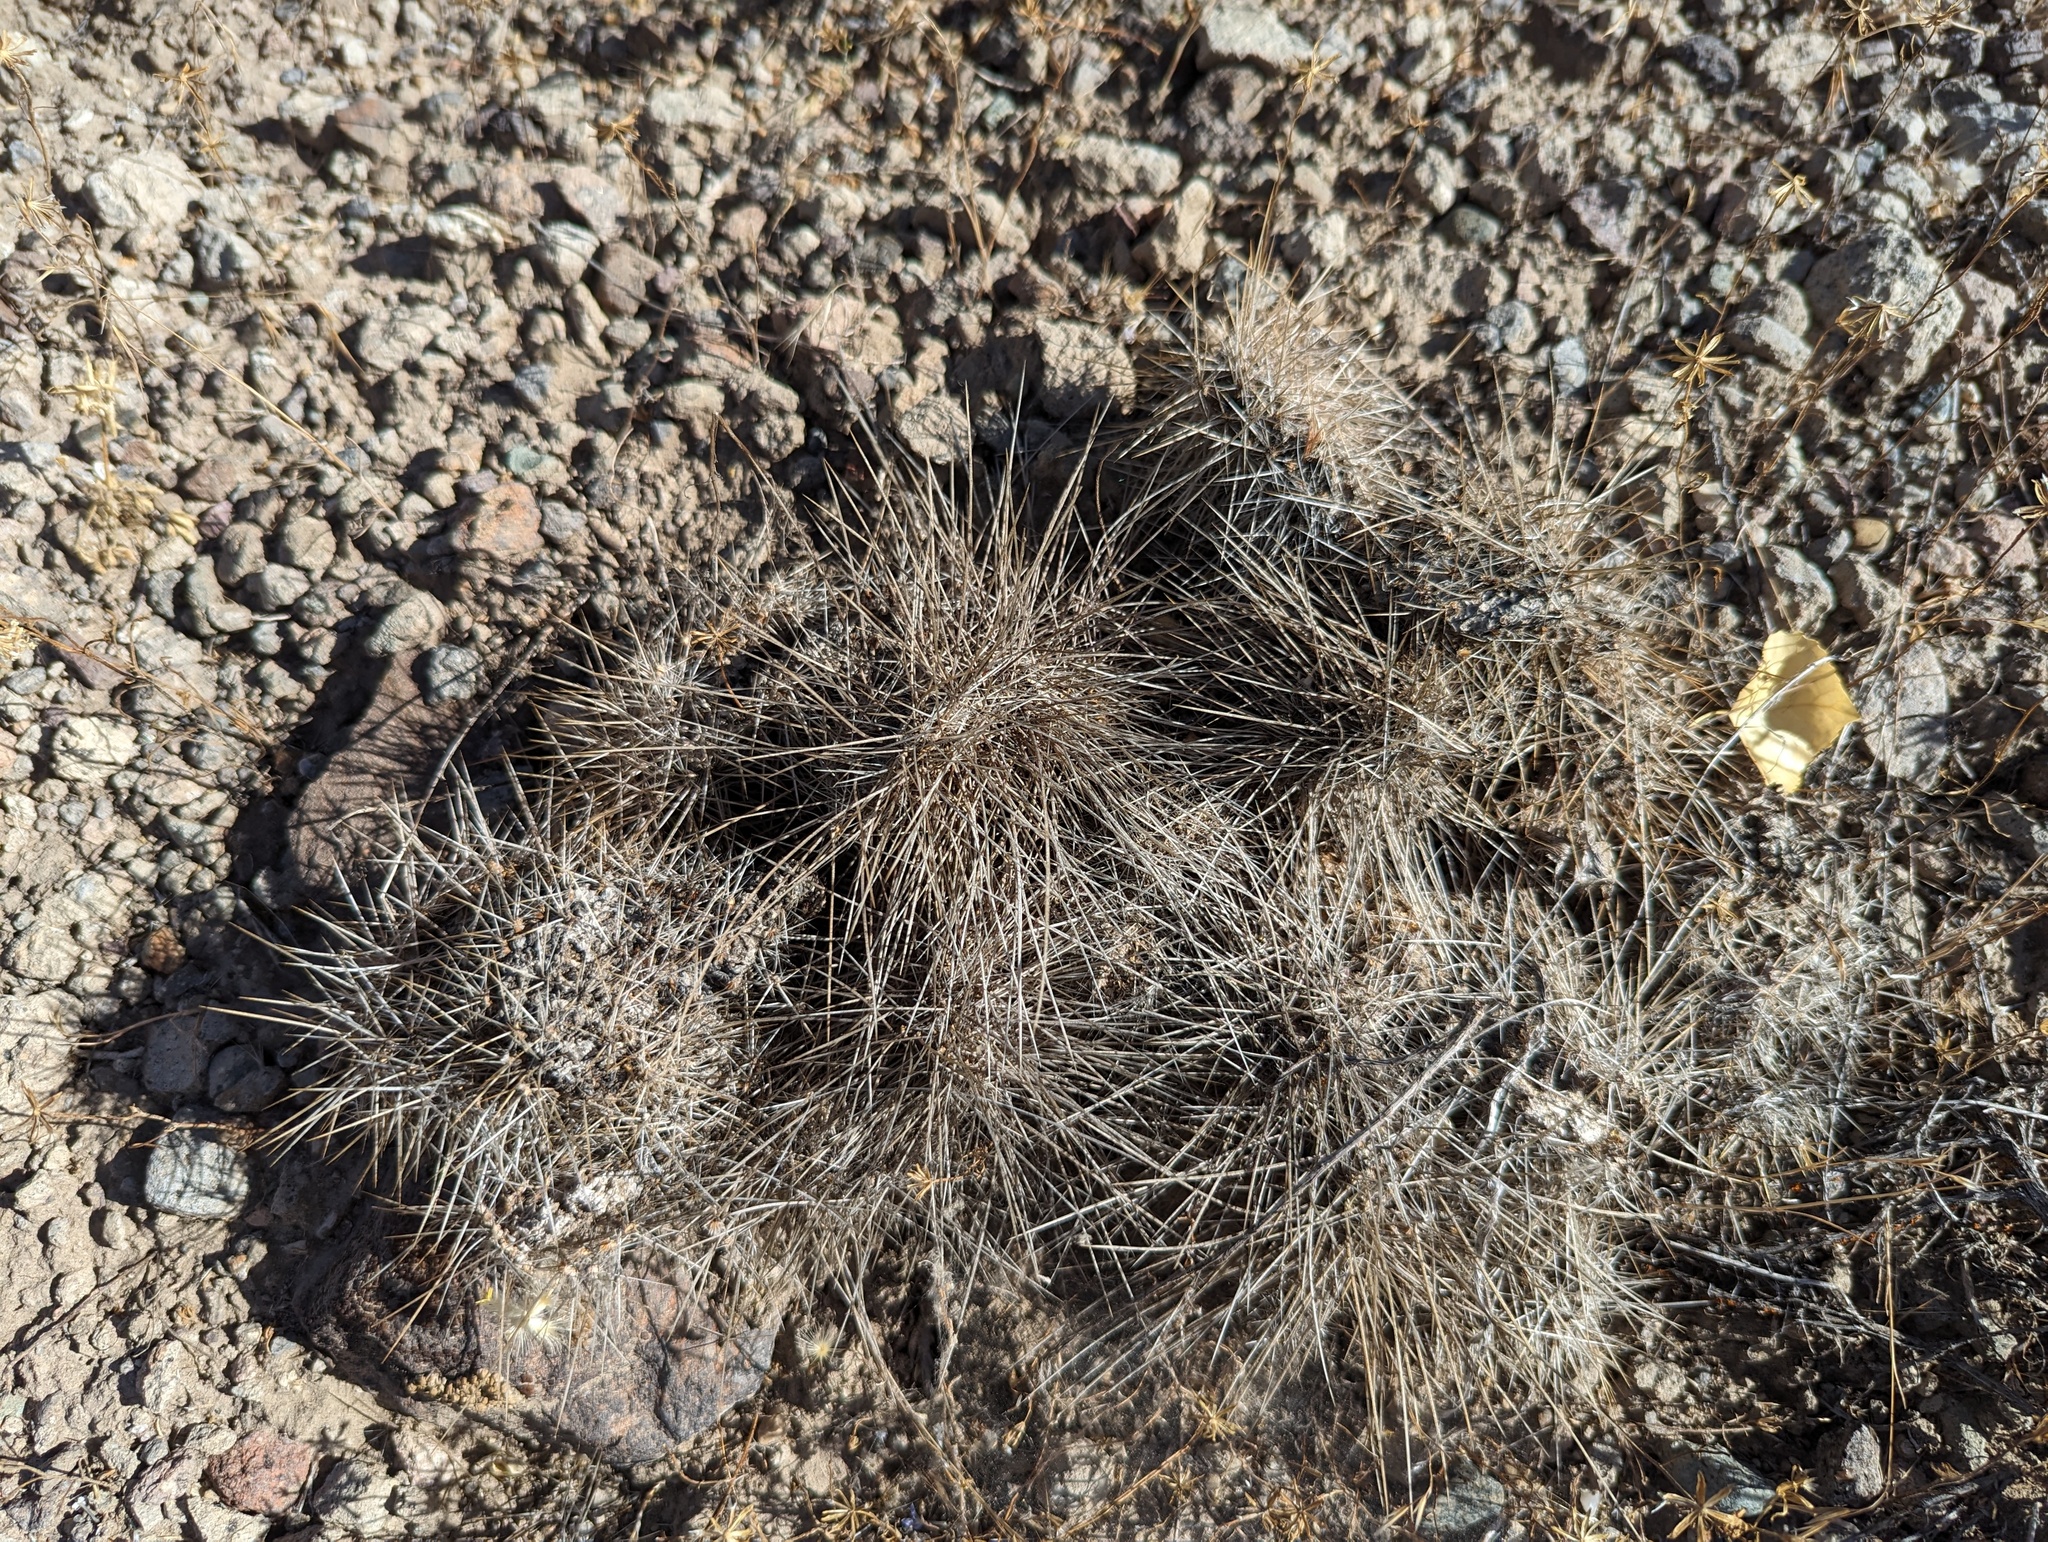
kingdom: Plantae
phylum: Tracheophyta
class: Magnoliopsida
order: Caryophyllales
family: Cactaceae
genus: Micropuntia
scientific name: Micropuntia pulchella
